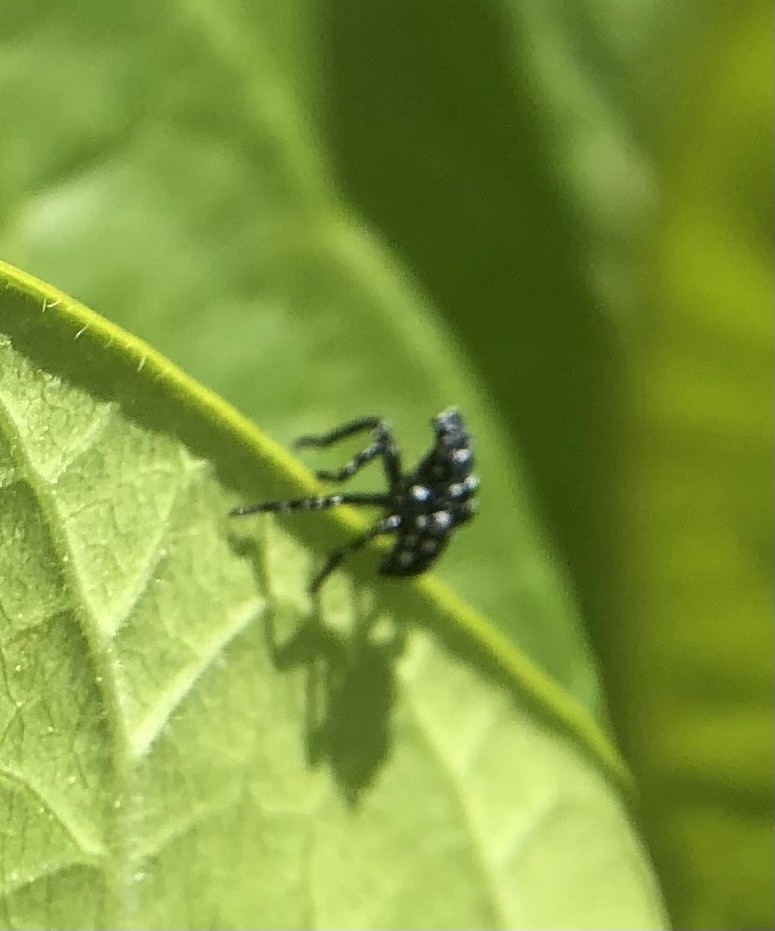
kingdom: Animalia
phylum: Arthropoda
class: Insecta
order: Hemiptera
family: Fulgoridae
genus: Lycorma
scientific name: Lycorma delicatula
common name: Spotted lanternfly
